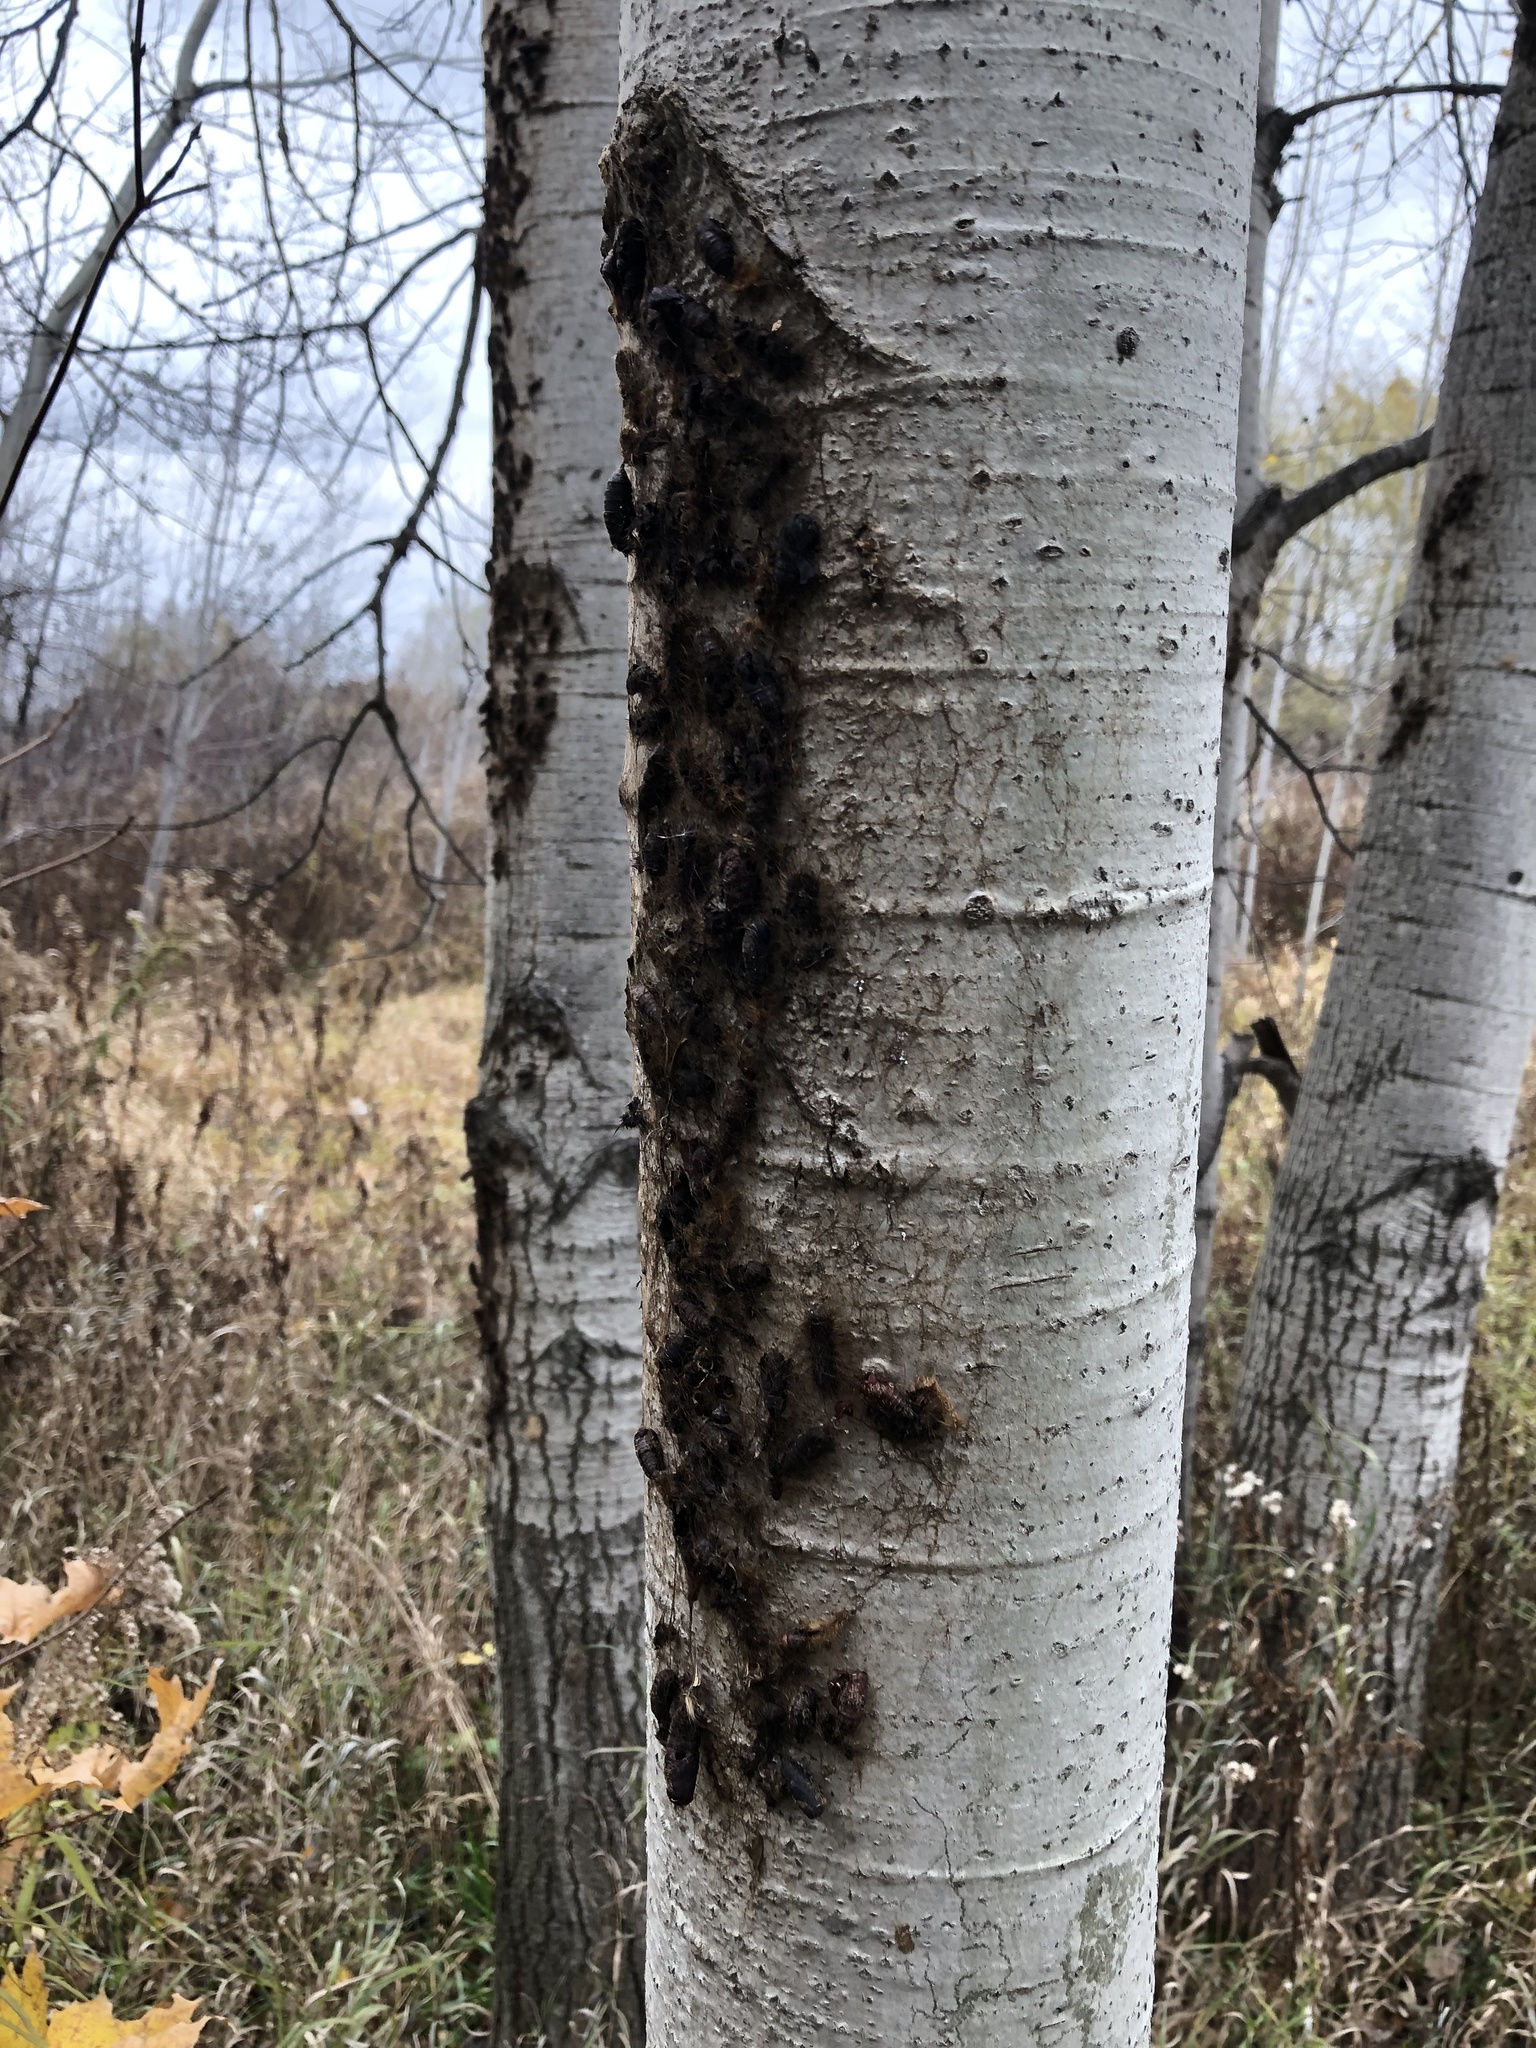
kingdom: Animalia
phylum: Arthropoda
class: Insecta
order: Lepidoptera
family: Erebidae
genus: Lymantria
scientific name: Lymantria dispar
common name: Gypsy moth
